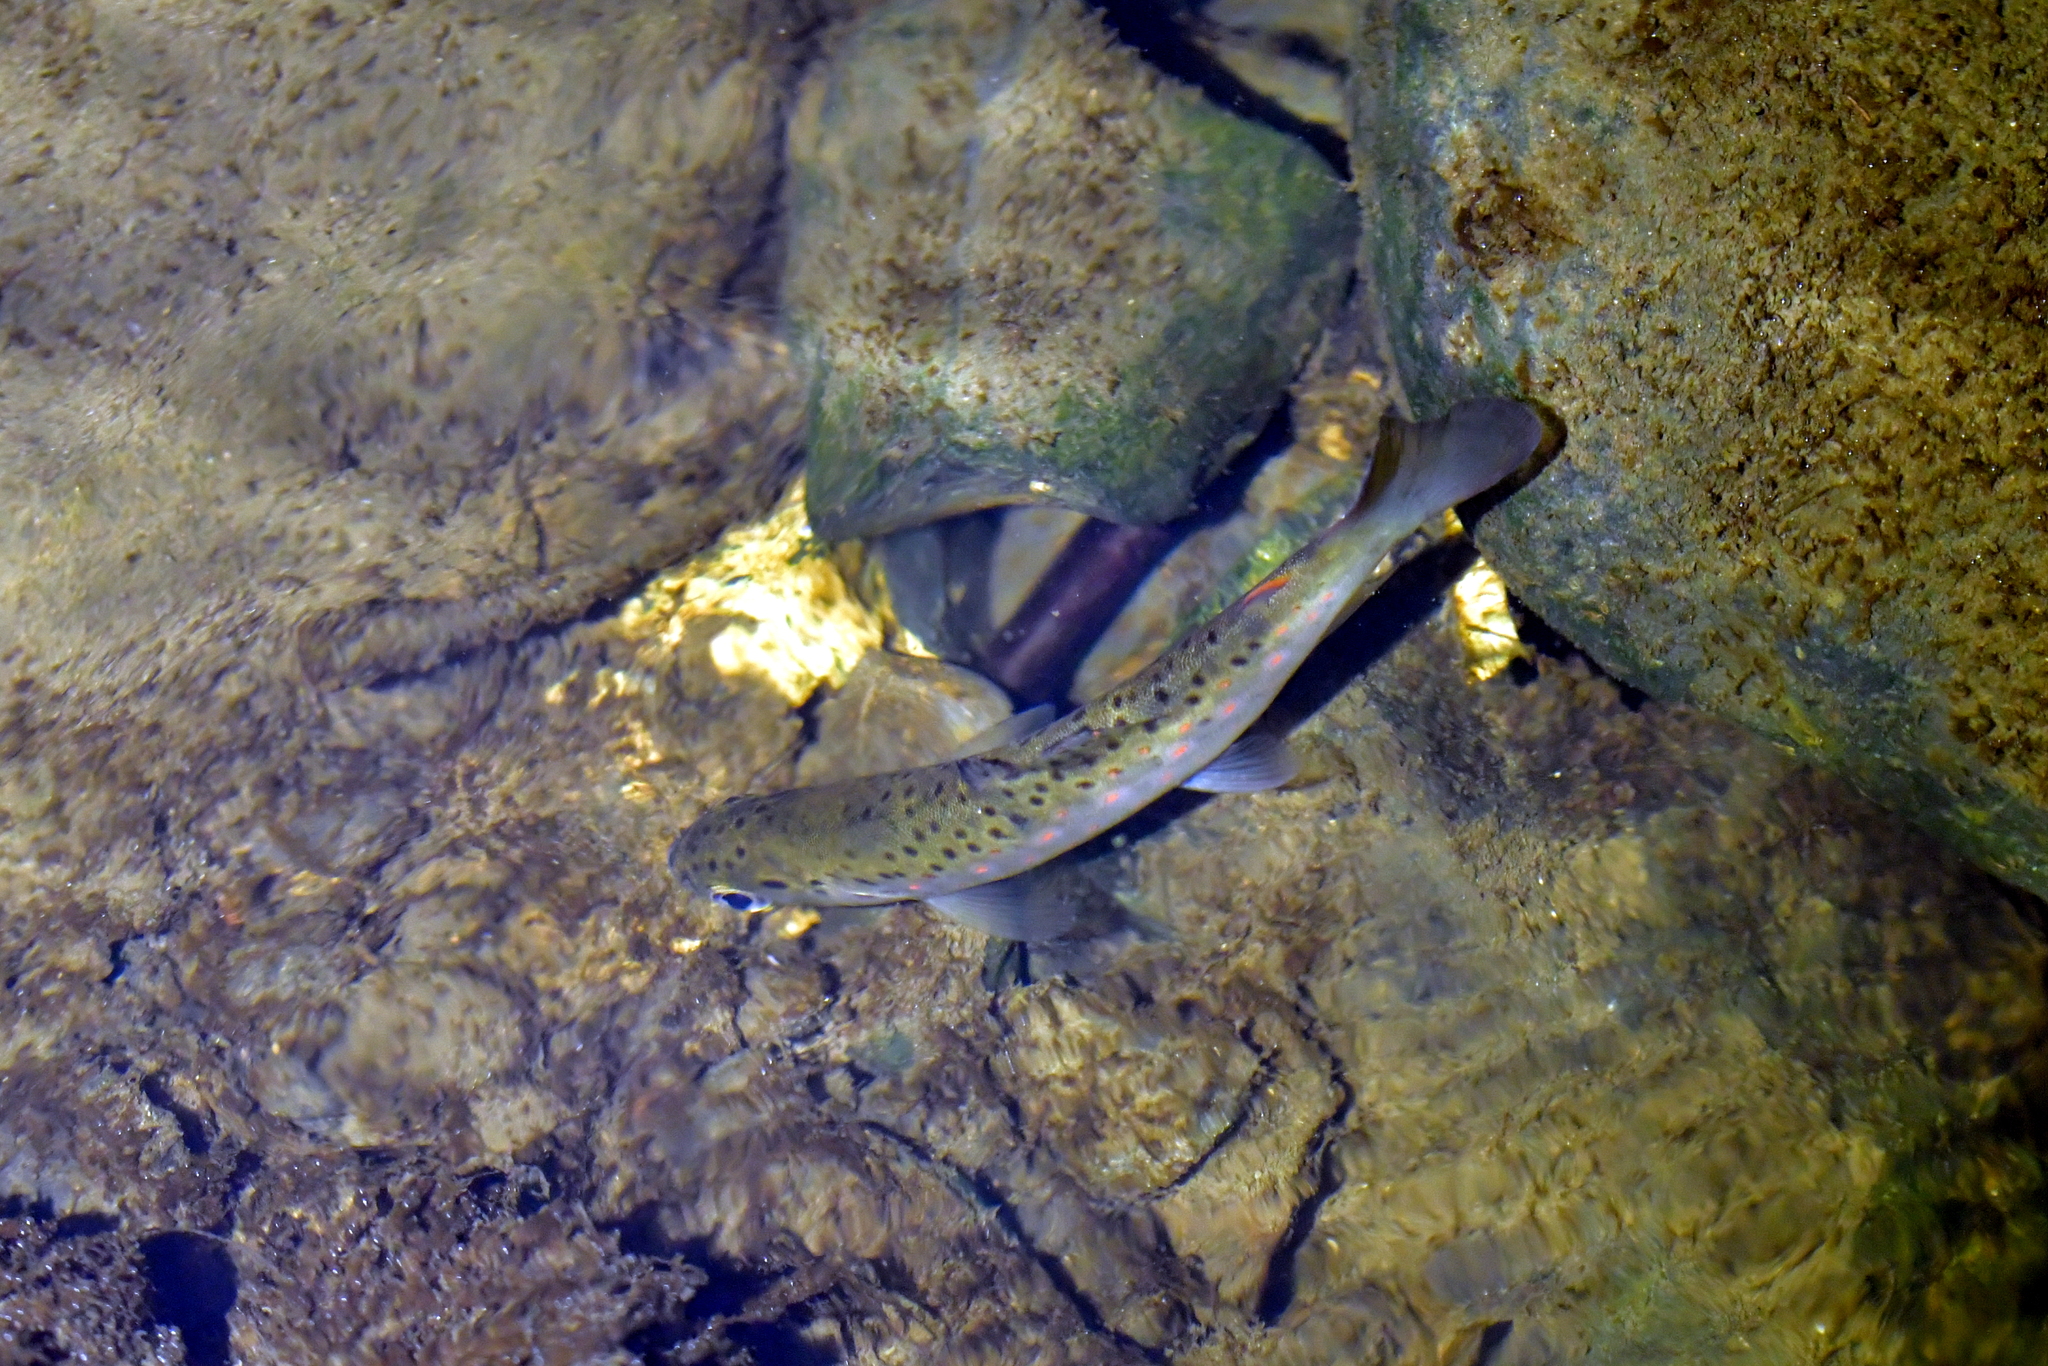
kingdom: Animalia
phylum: Chordata
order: Salmoniformes
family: Salmonidae
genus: Salmo
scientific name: Salmo trutta
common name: Brown trout
